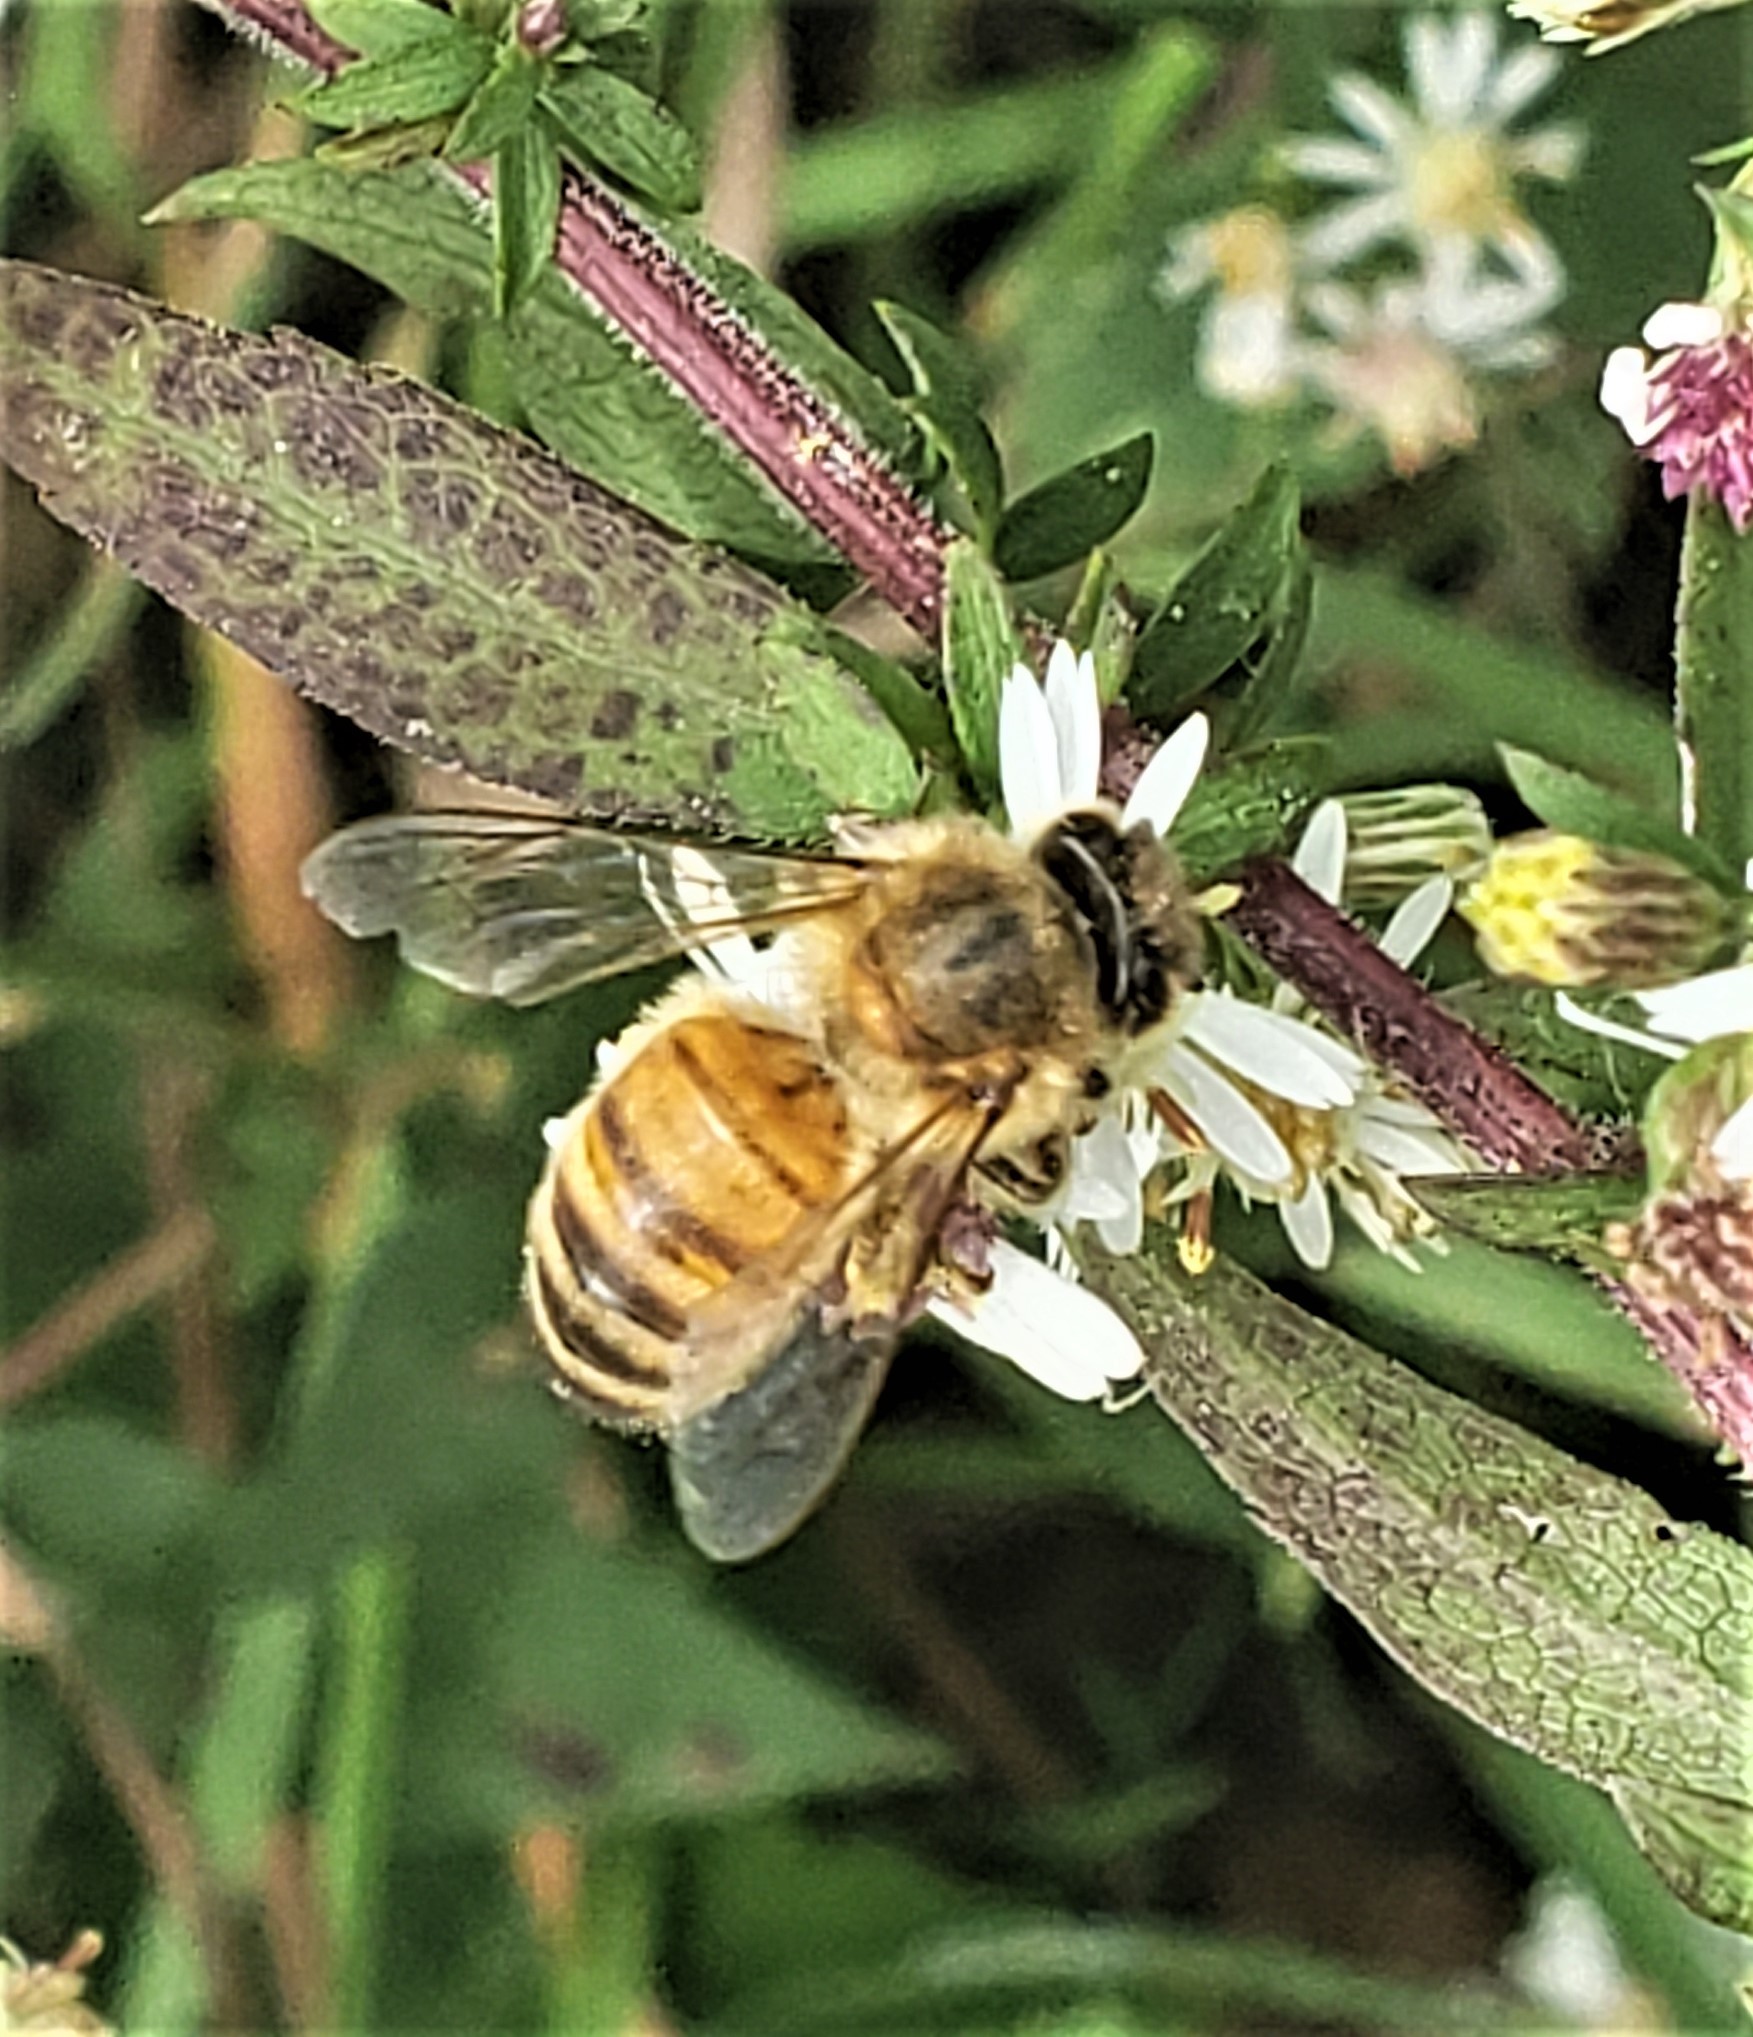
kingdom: Animalia
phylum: Arthropoda
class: Insecta
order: Hymenoptera
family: Apidae
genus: Apis
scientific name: Apis mellifera
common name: Honey bee
